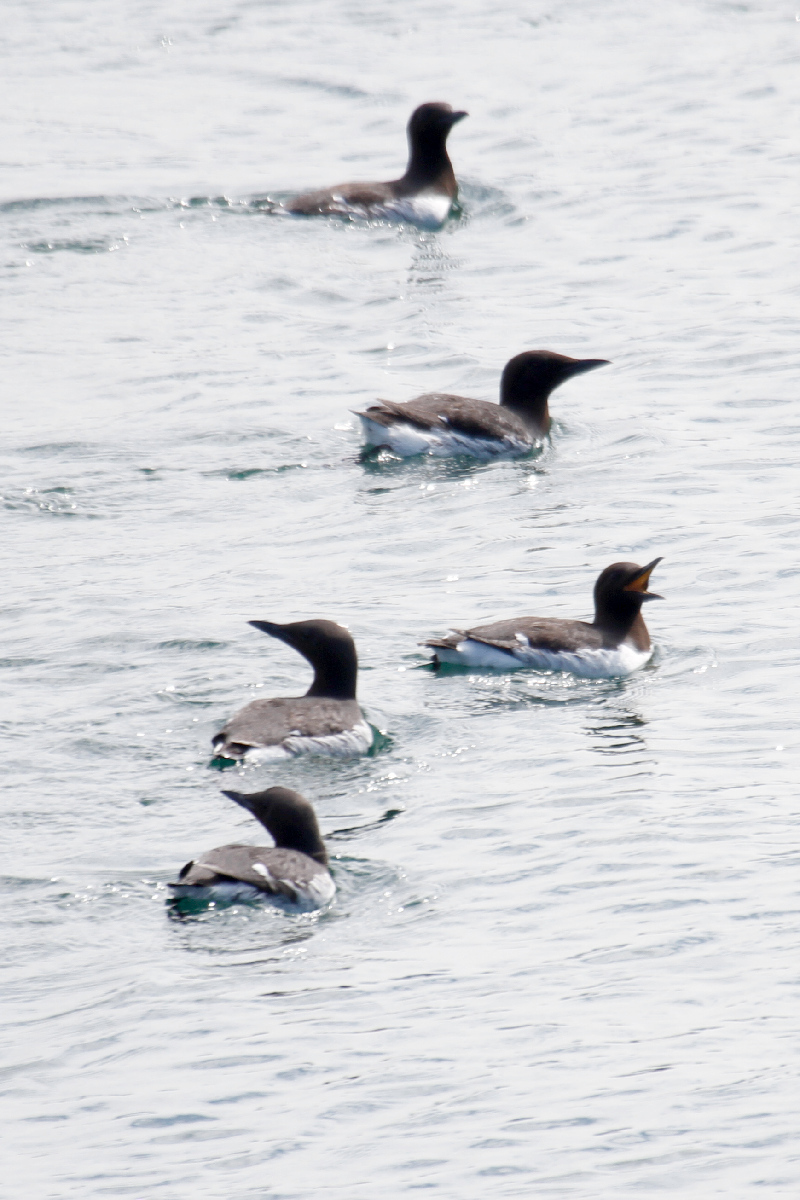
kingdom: Animalia
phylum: Chordata
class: Aves
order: Charadriiformes
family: Alcidae
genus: Uria
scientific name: Uria aalge
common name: Common murre
